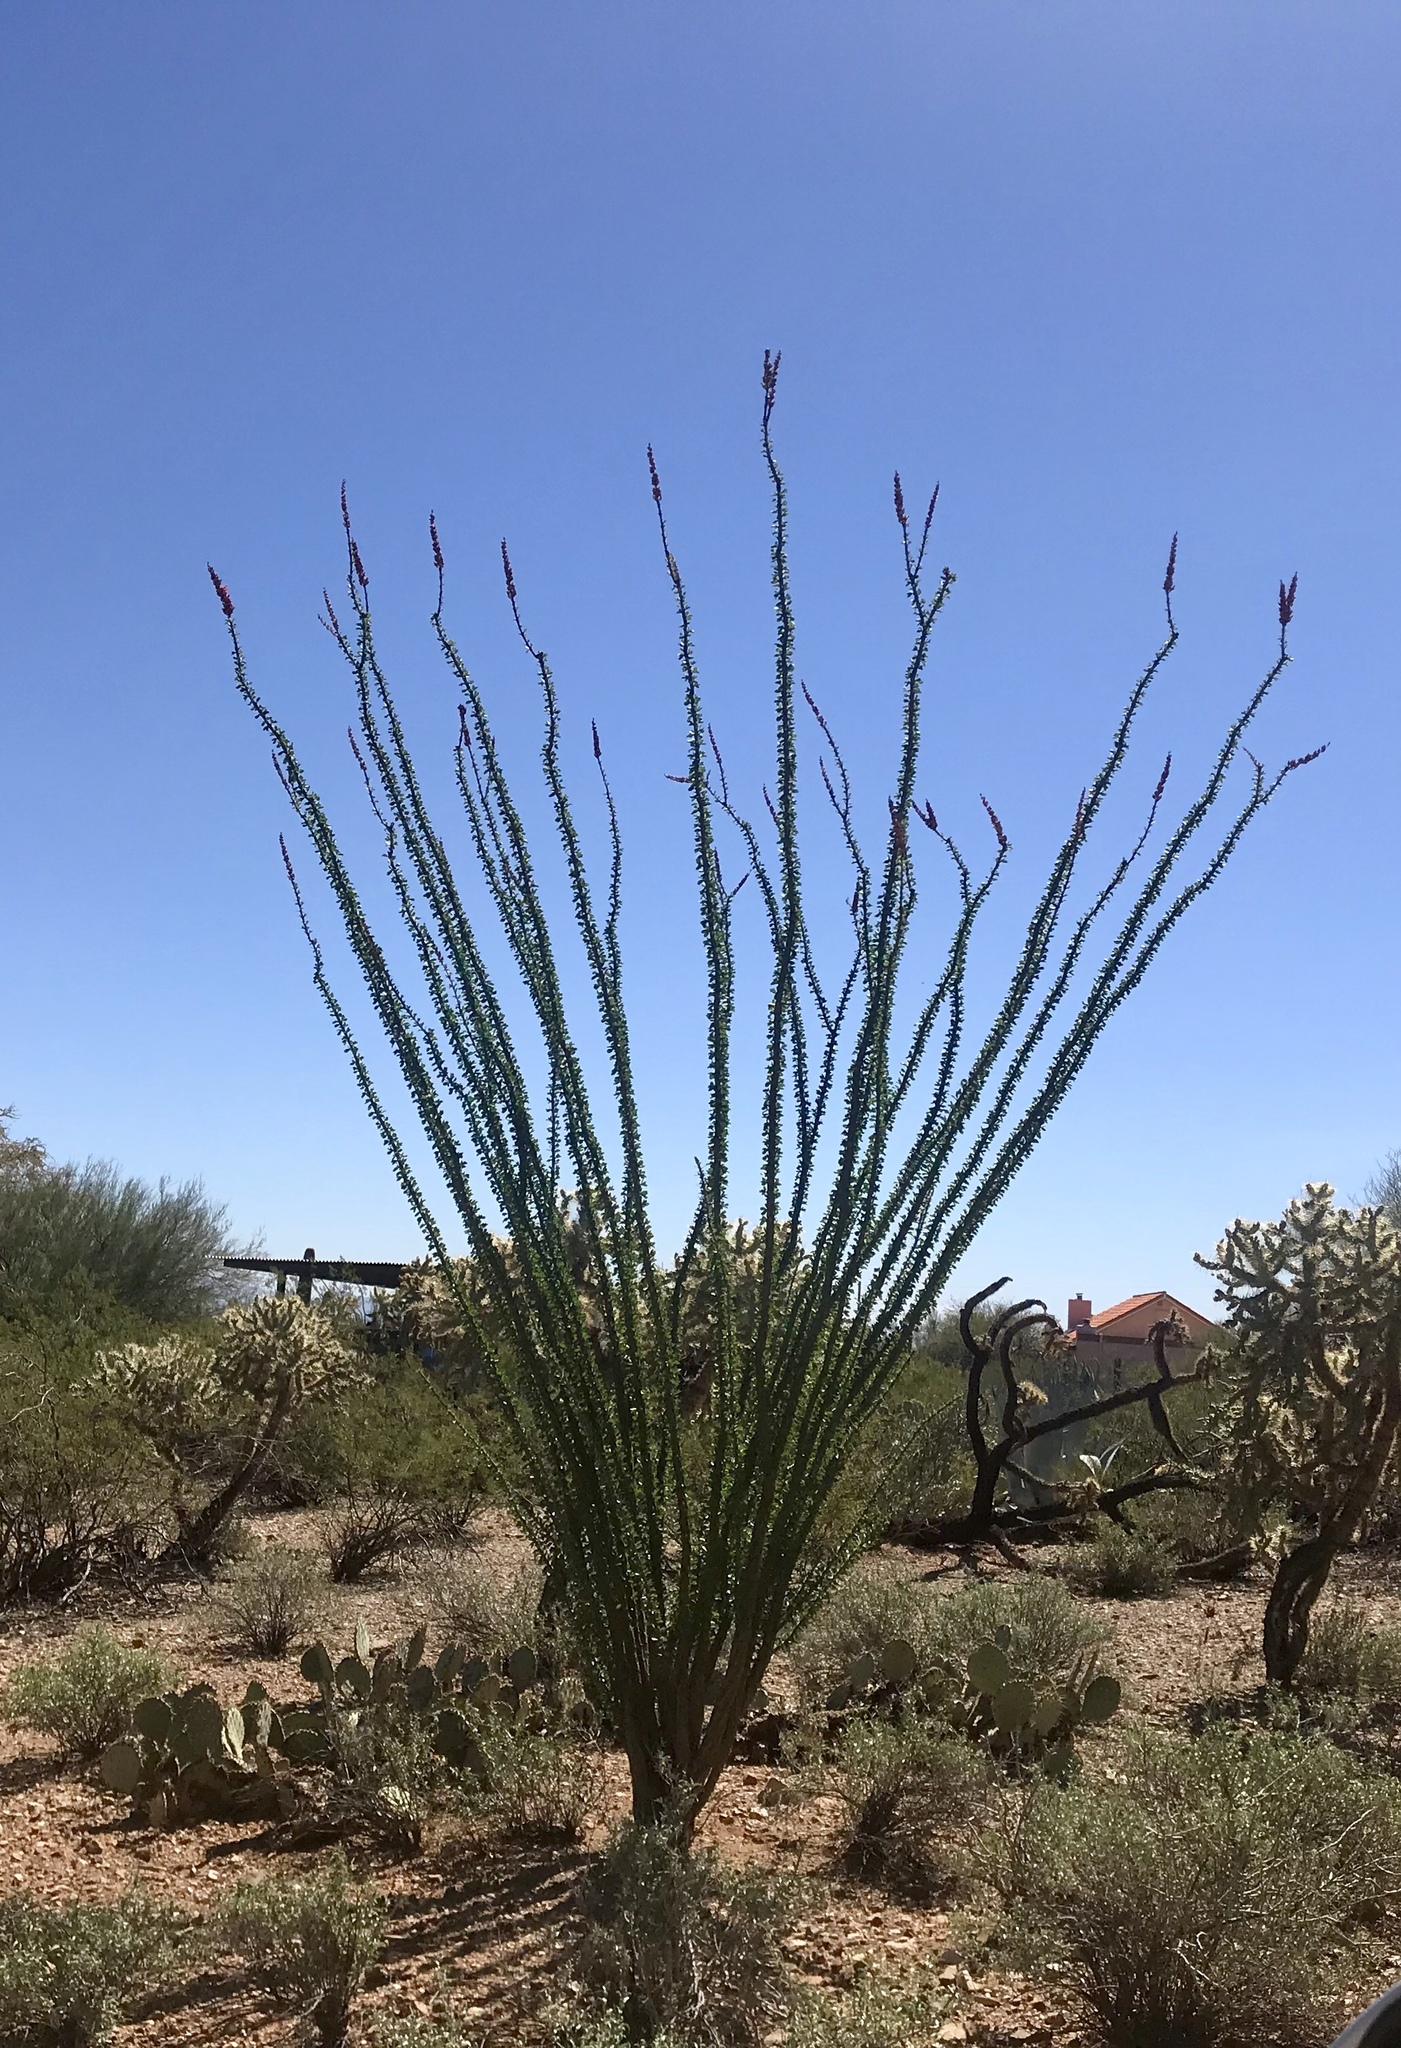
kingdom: Plantae
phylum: Tracheophyta
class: Magnoliopsida
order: Ericales
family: Fouquieriaceae
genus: Fouquieria
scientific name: Fouquieria splendens
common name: Vine-cactus
